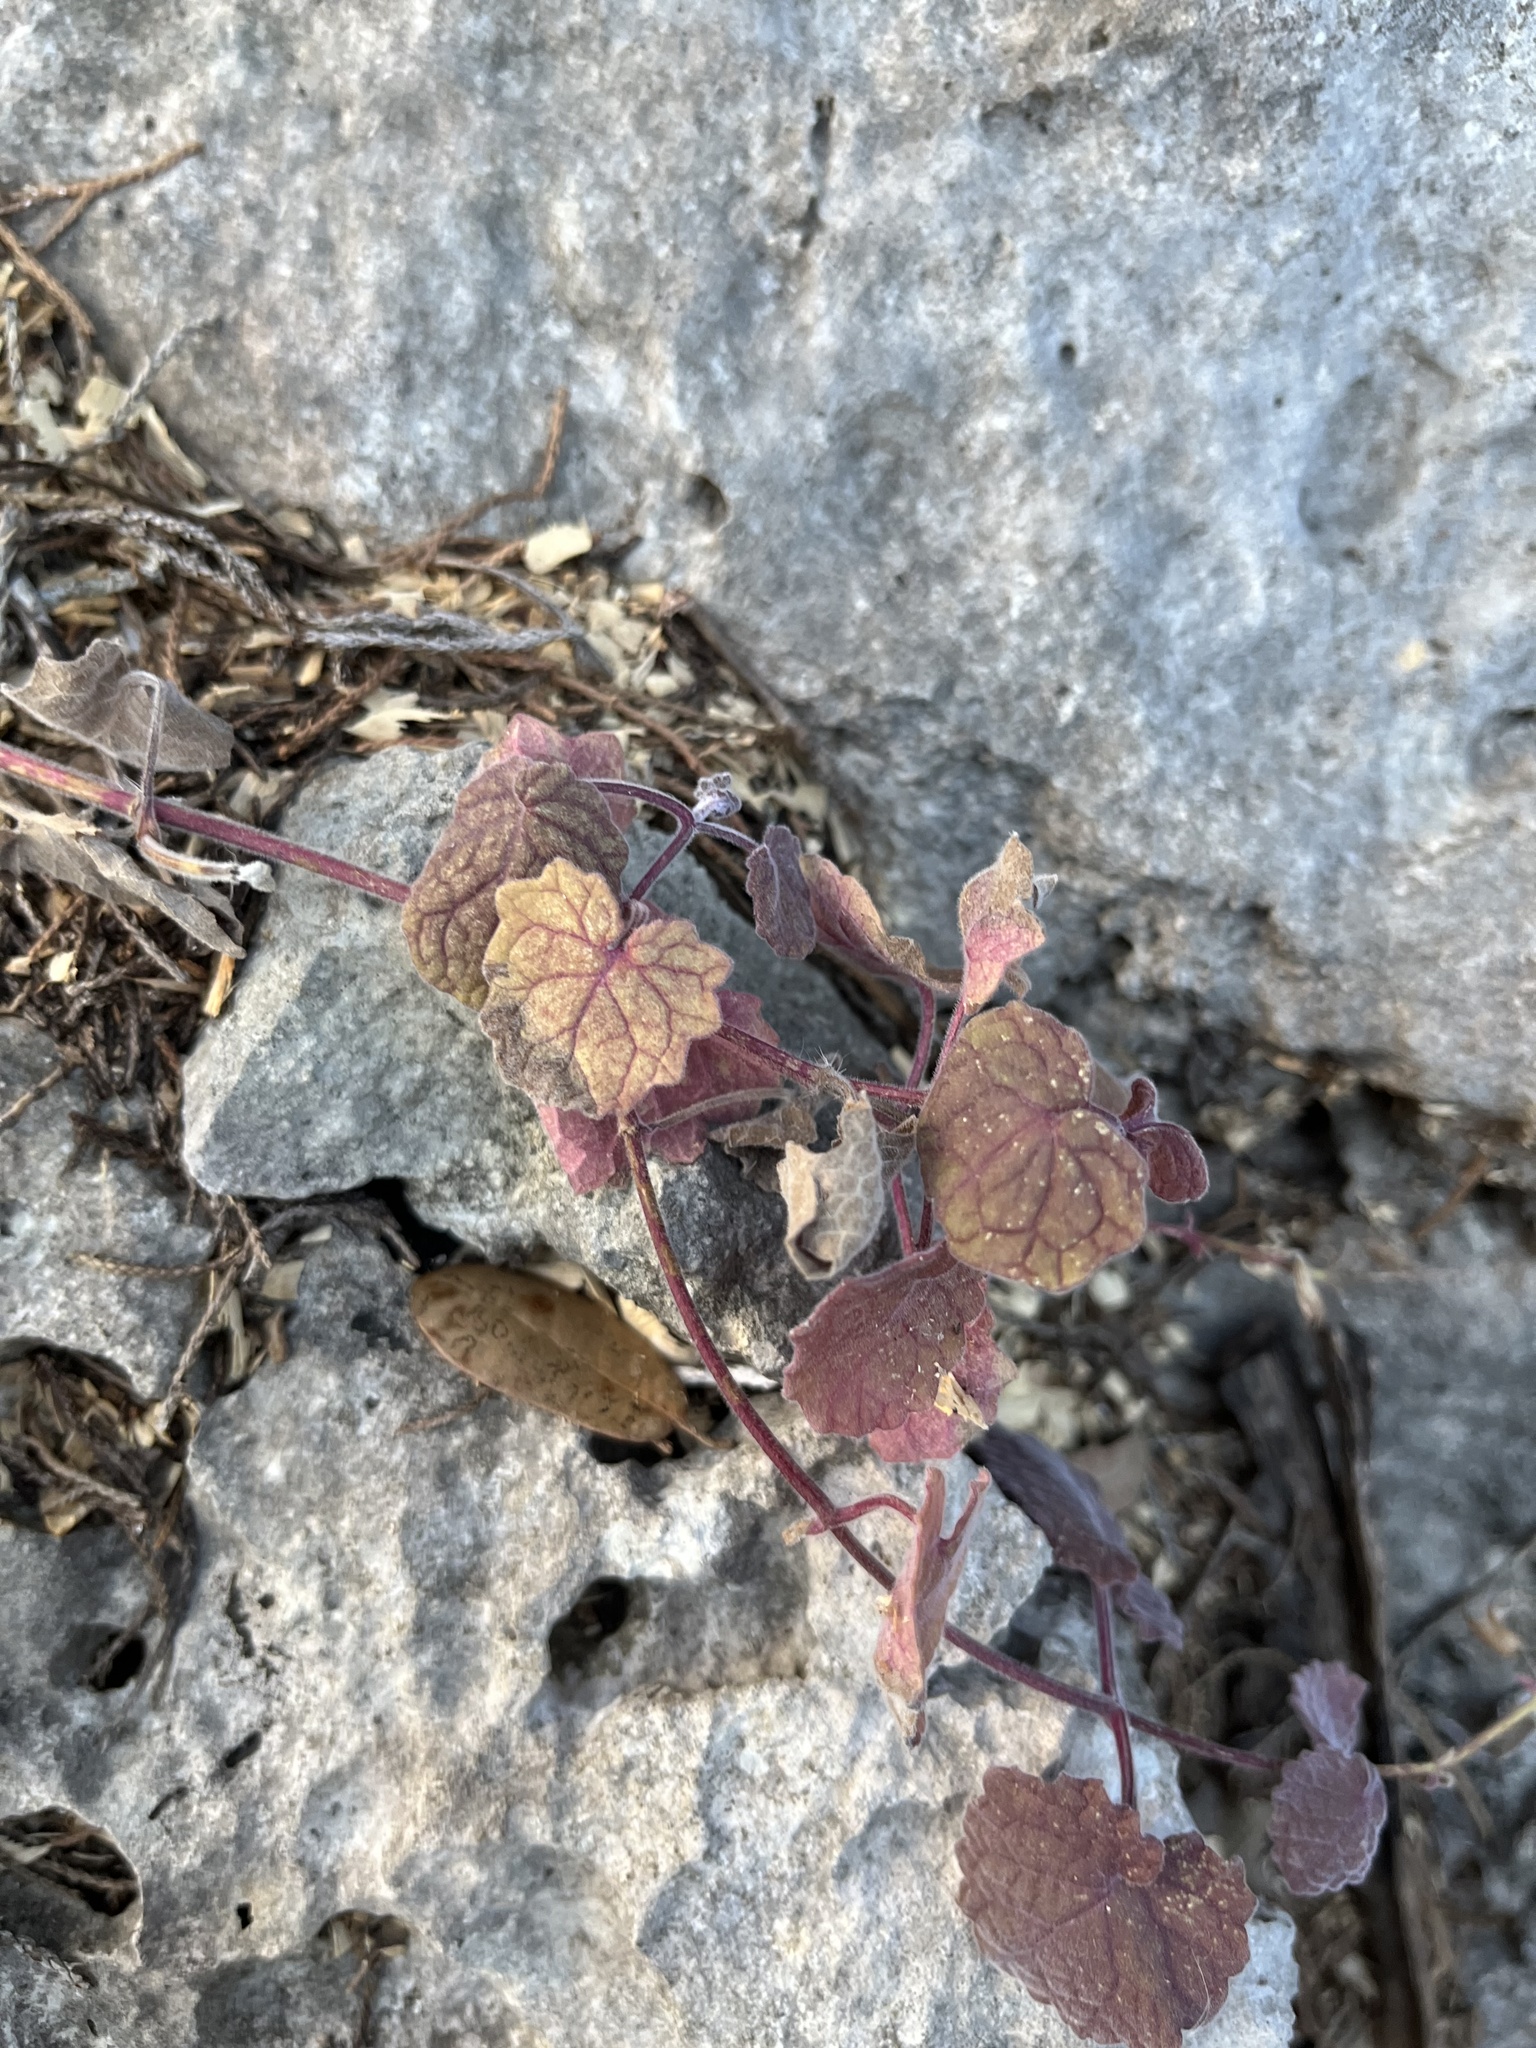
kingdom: Plantae
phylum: Tracheophyta
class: Magnoliopsida
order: Lamiales
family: Lamiaceae
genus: Salvia
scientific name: Salvia roemeriana
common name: Cedar sage
